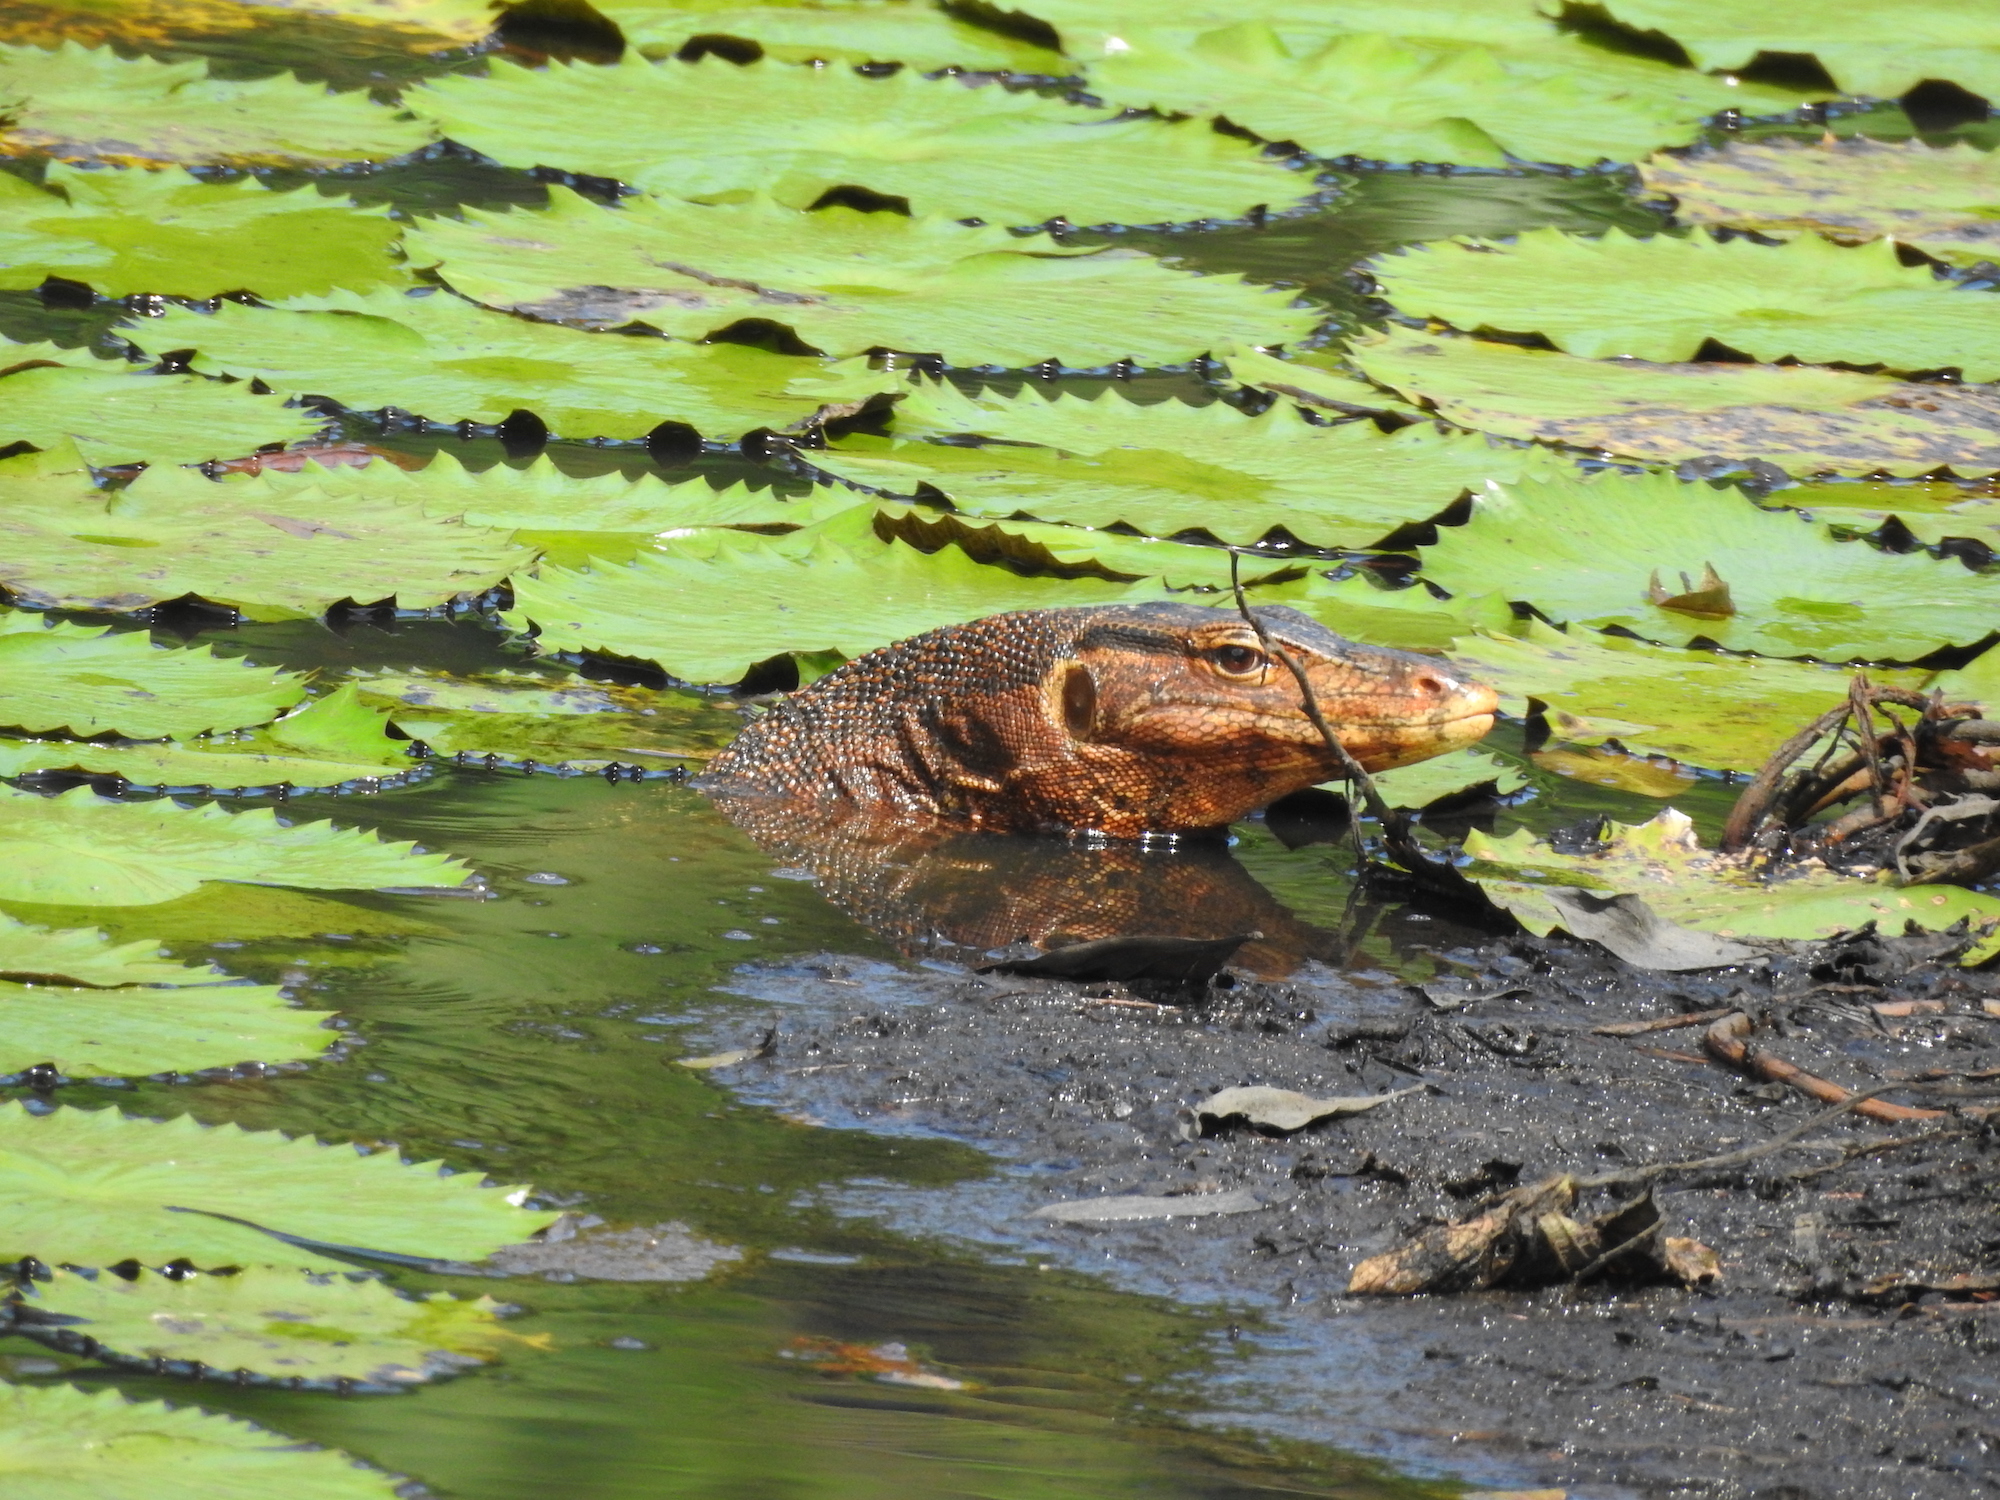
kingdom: Animalia
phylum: Chordata
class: Squamata
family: Varanidae
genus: Varanus
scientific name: Varanus salvator
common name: Common water monitor
